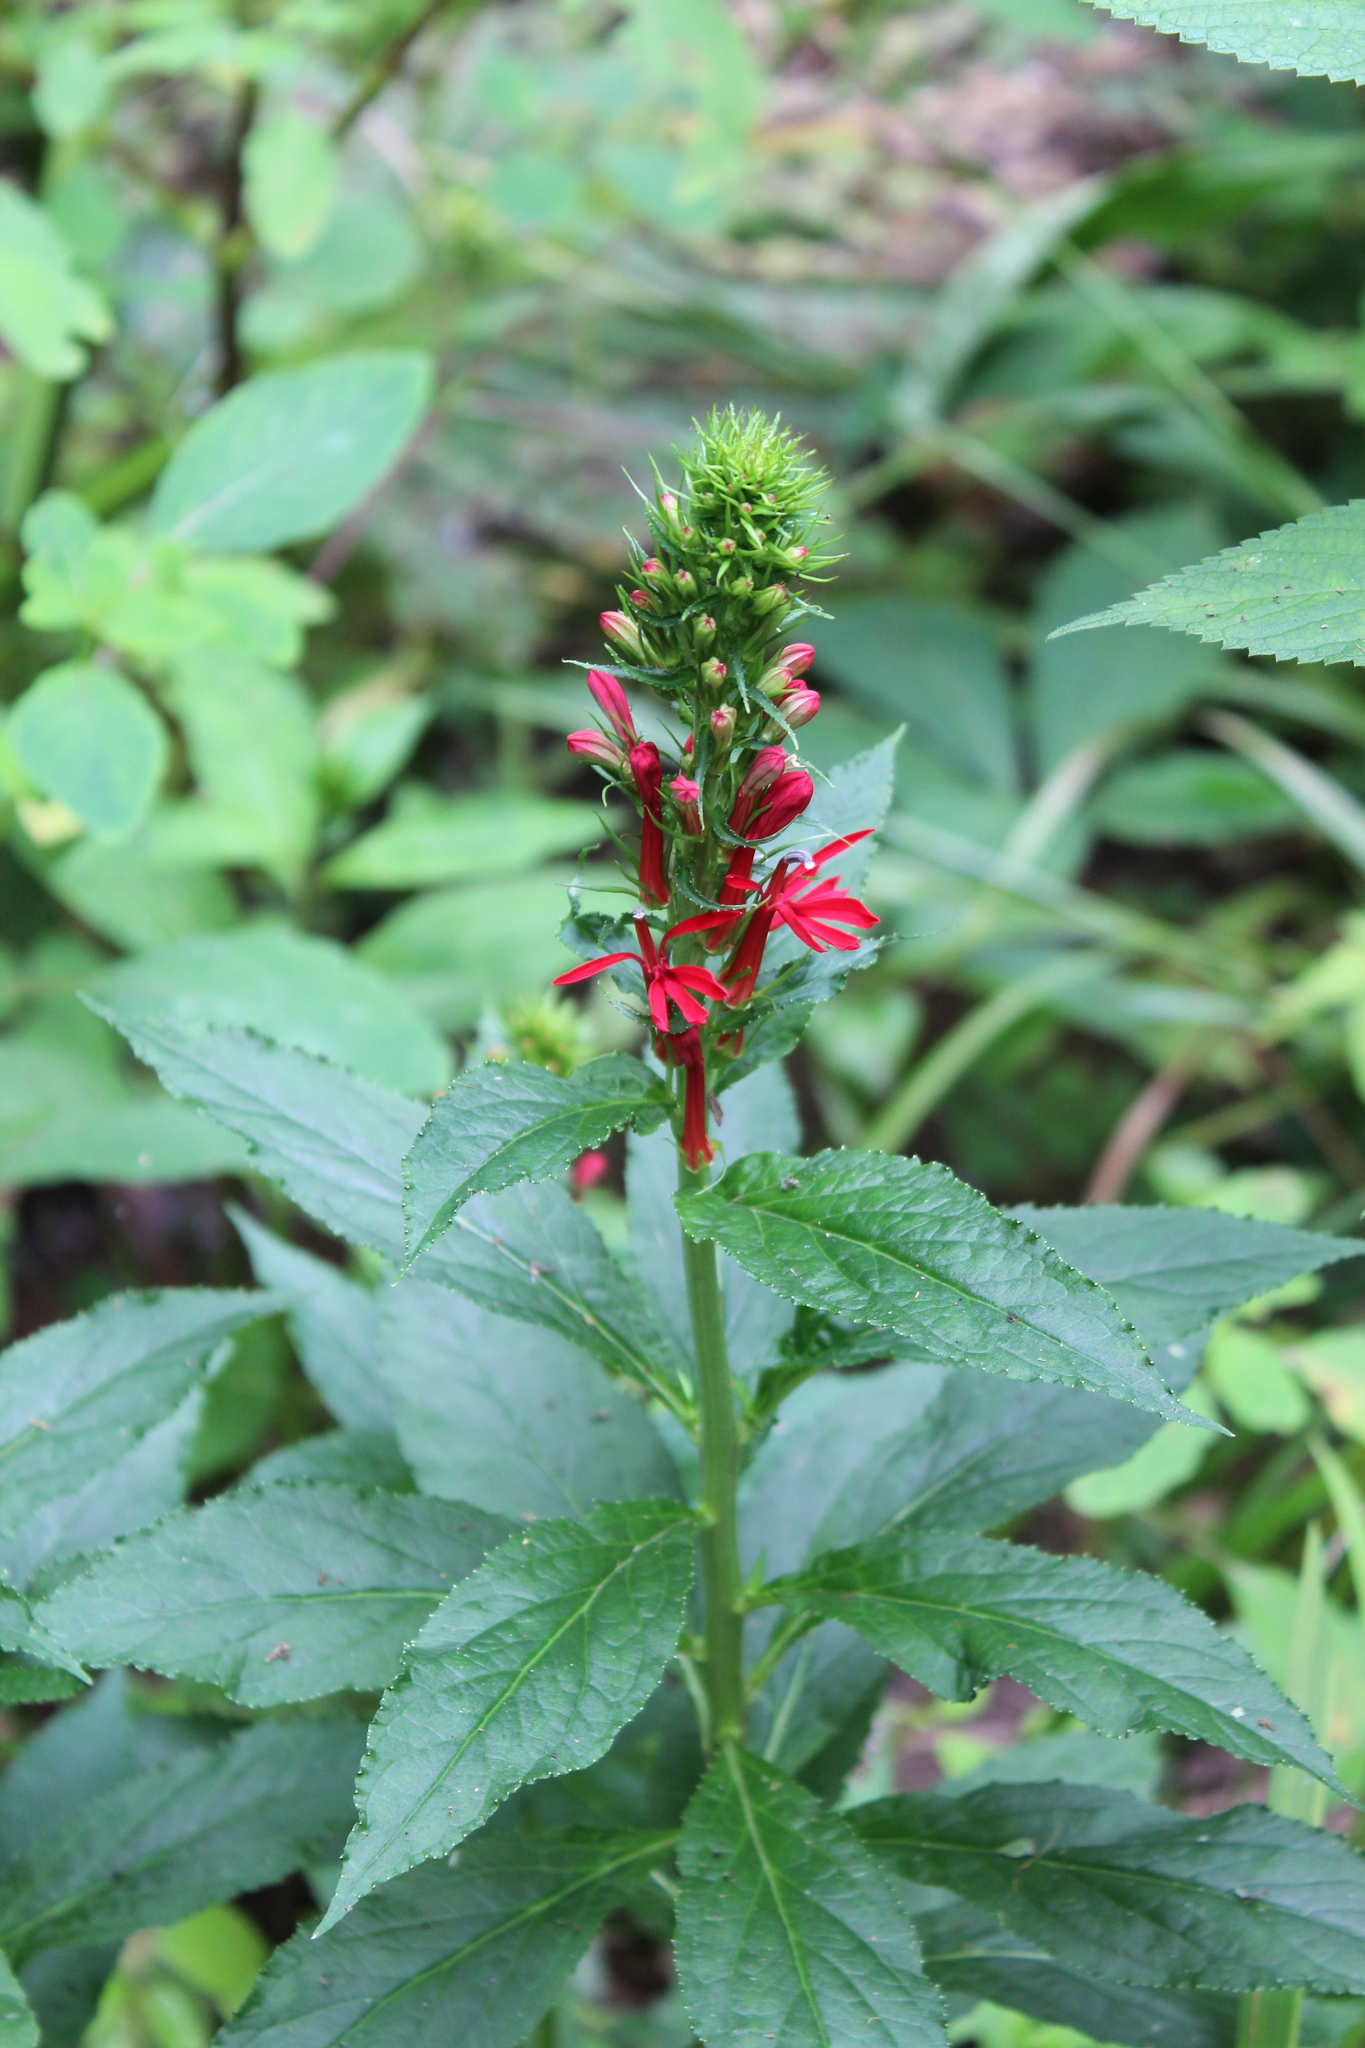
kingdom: Plantae
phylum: Tracheophyta
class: Magnoliopsida
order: Asterales
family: Campanulaceae
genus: Lobelia
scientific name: Lobelia cardinalis
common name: Cardinal flower
